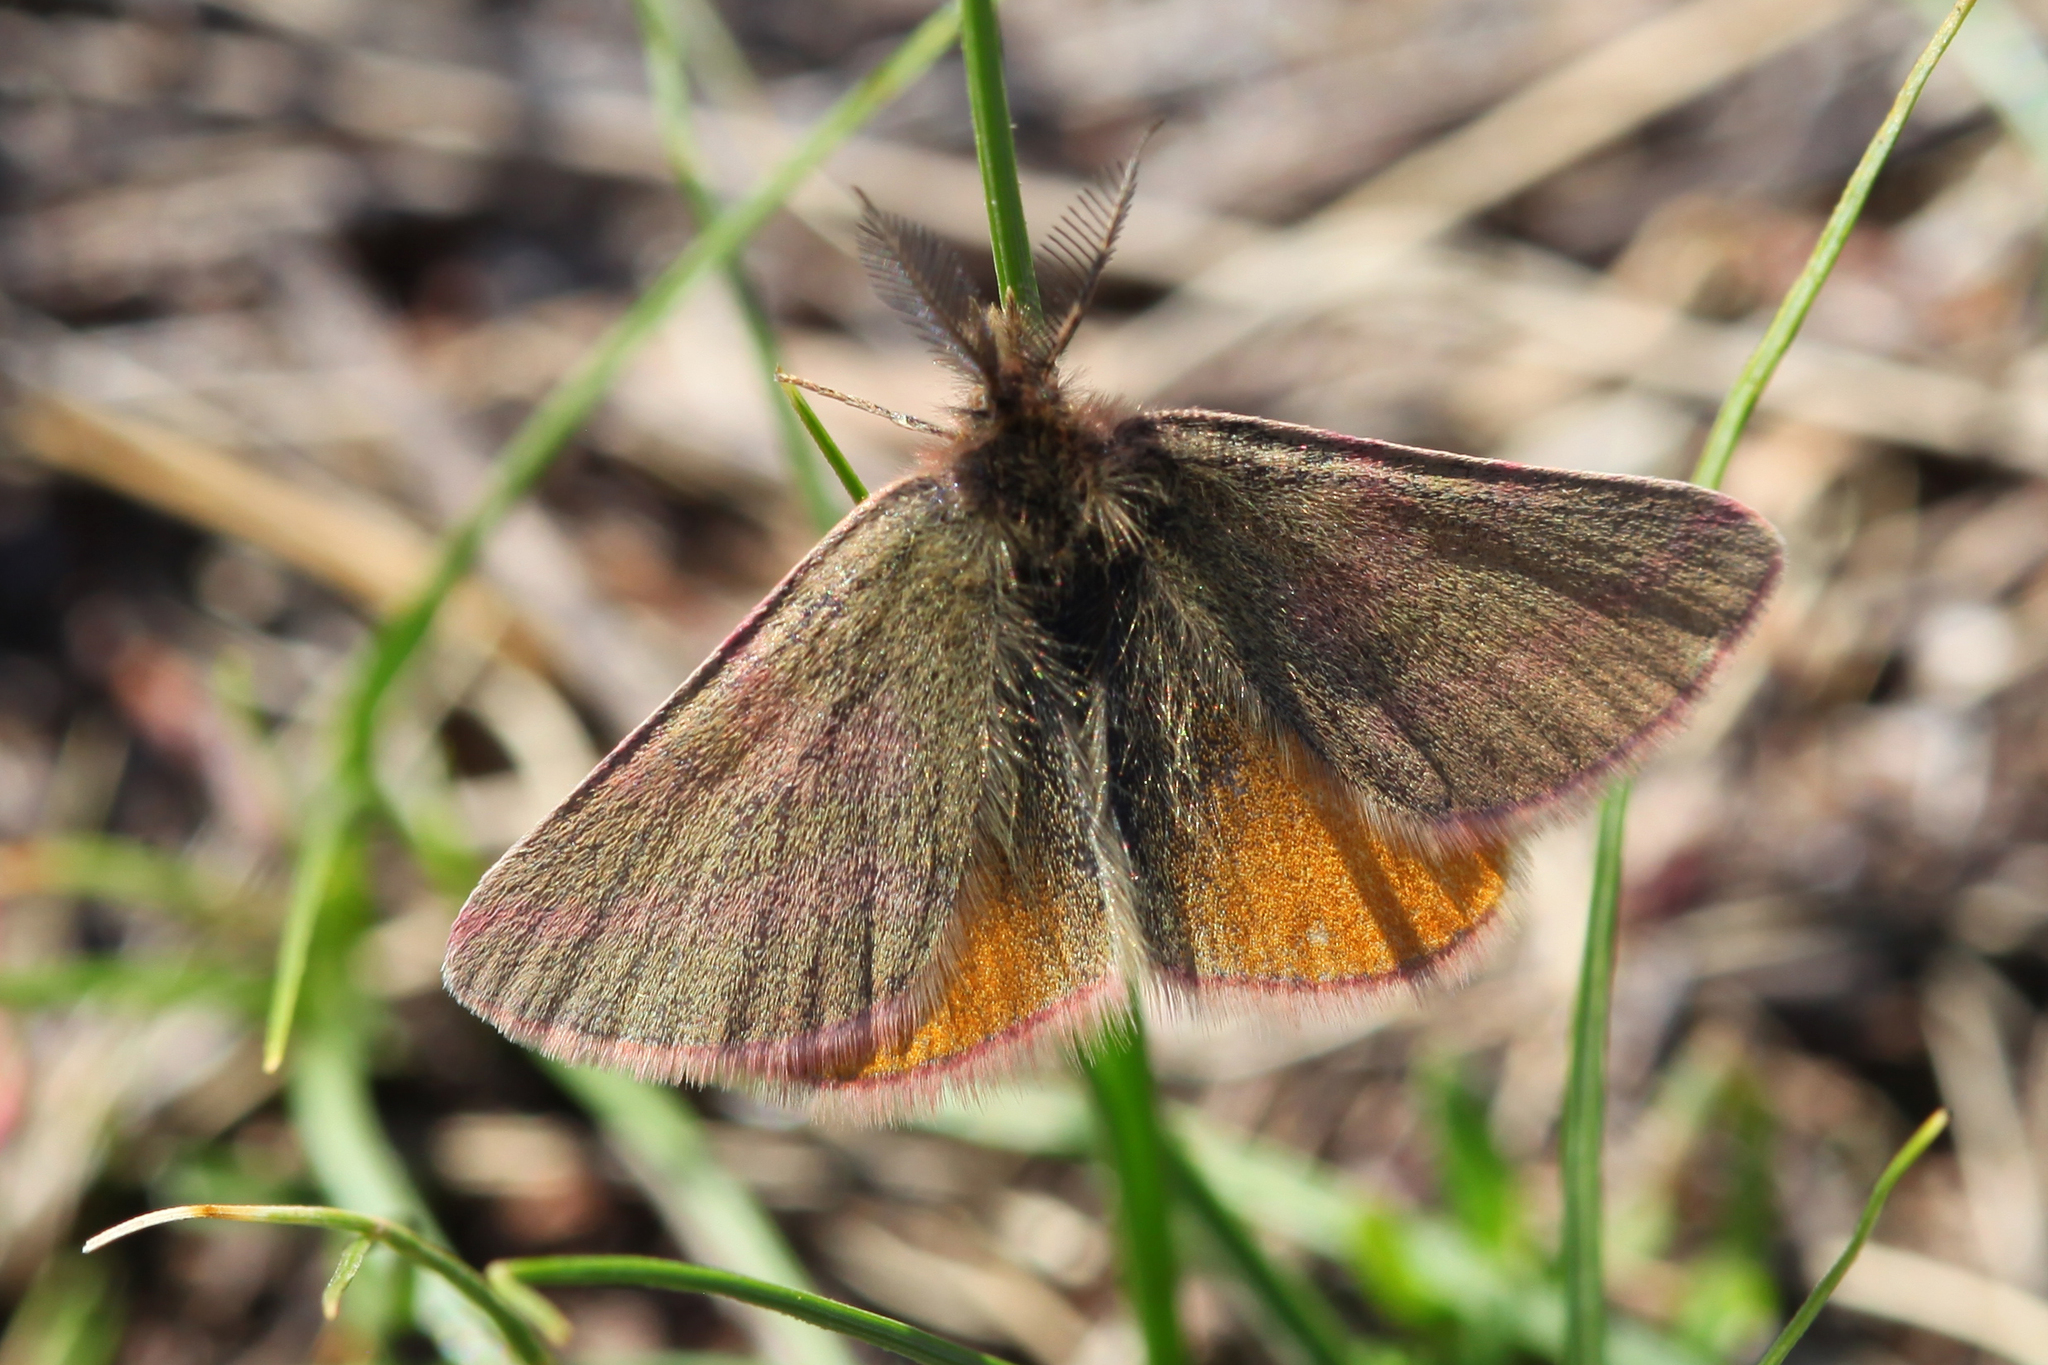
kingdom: Animalia
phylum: Arthropoda
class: Insecta
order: Lepidoptera
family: Geometridae
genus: Lythria
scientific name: Lythria purpuraria
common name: Purple-barred yellow
